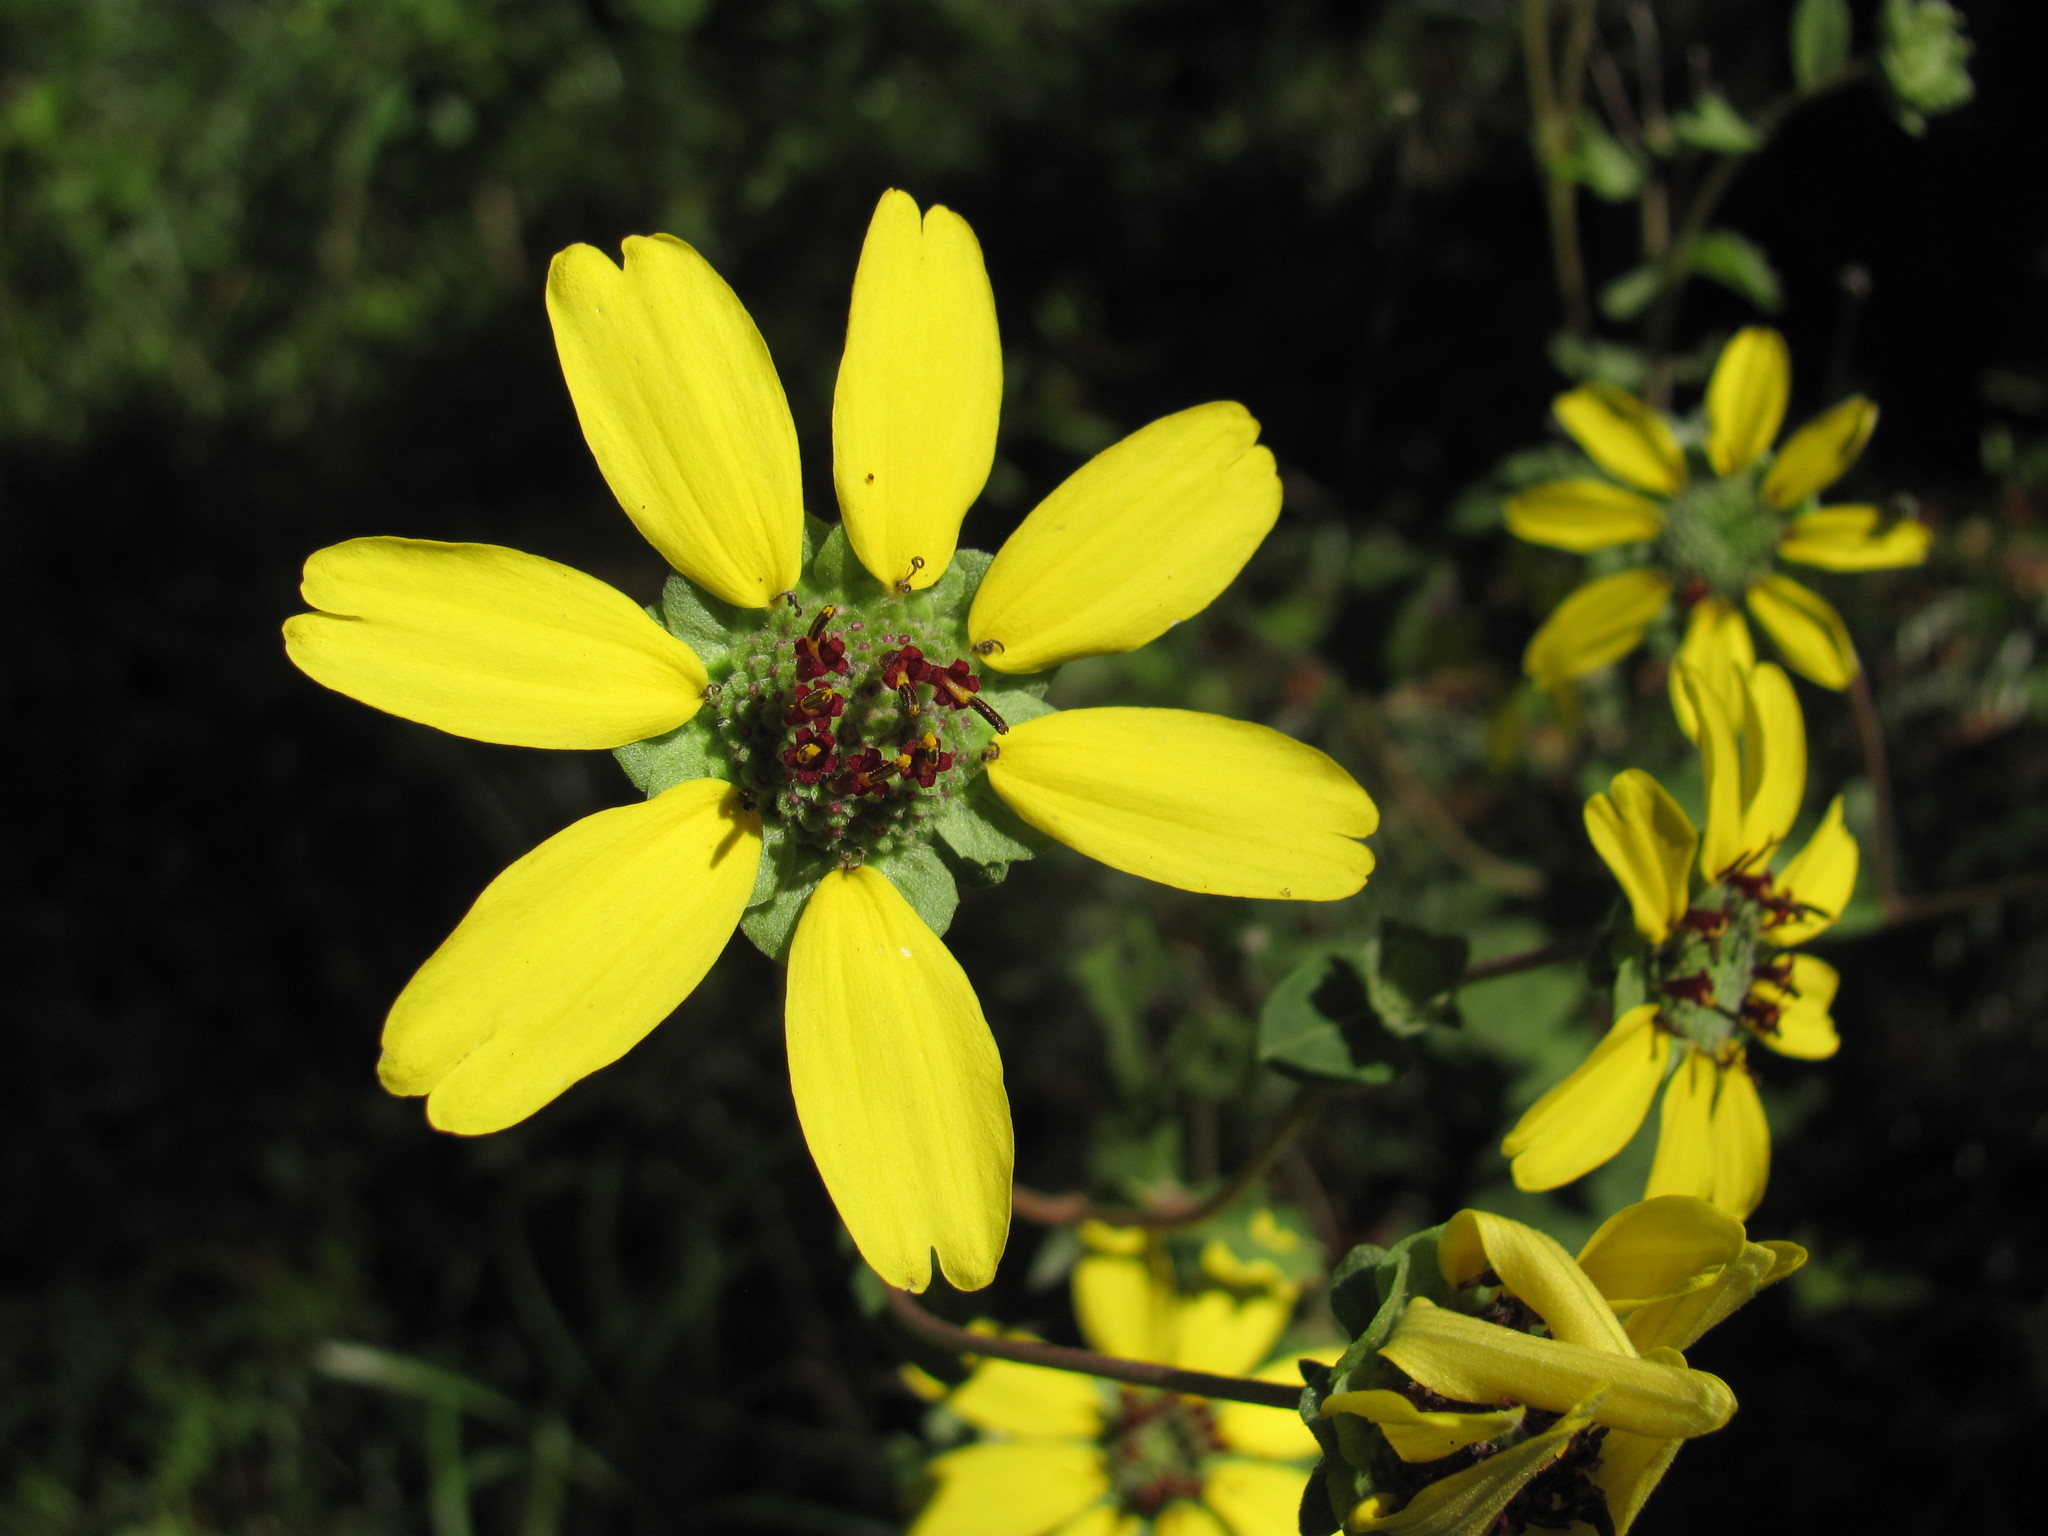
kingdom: Plantae
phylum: Tracheophyta
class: Magnoliopsida
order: Asterales
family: Asteraceae
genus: Berlandiera
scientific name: Berlandiera pumila
